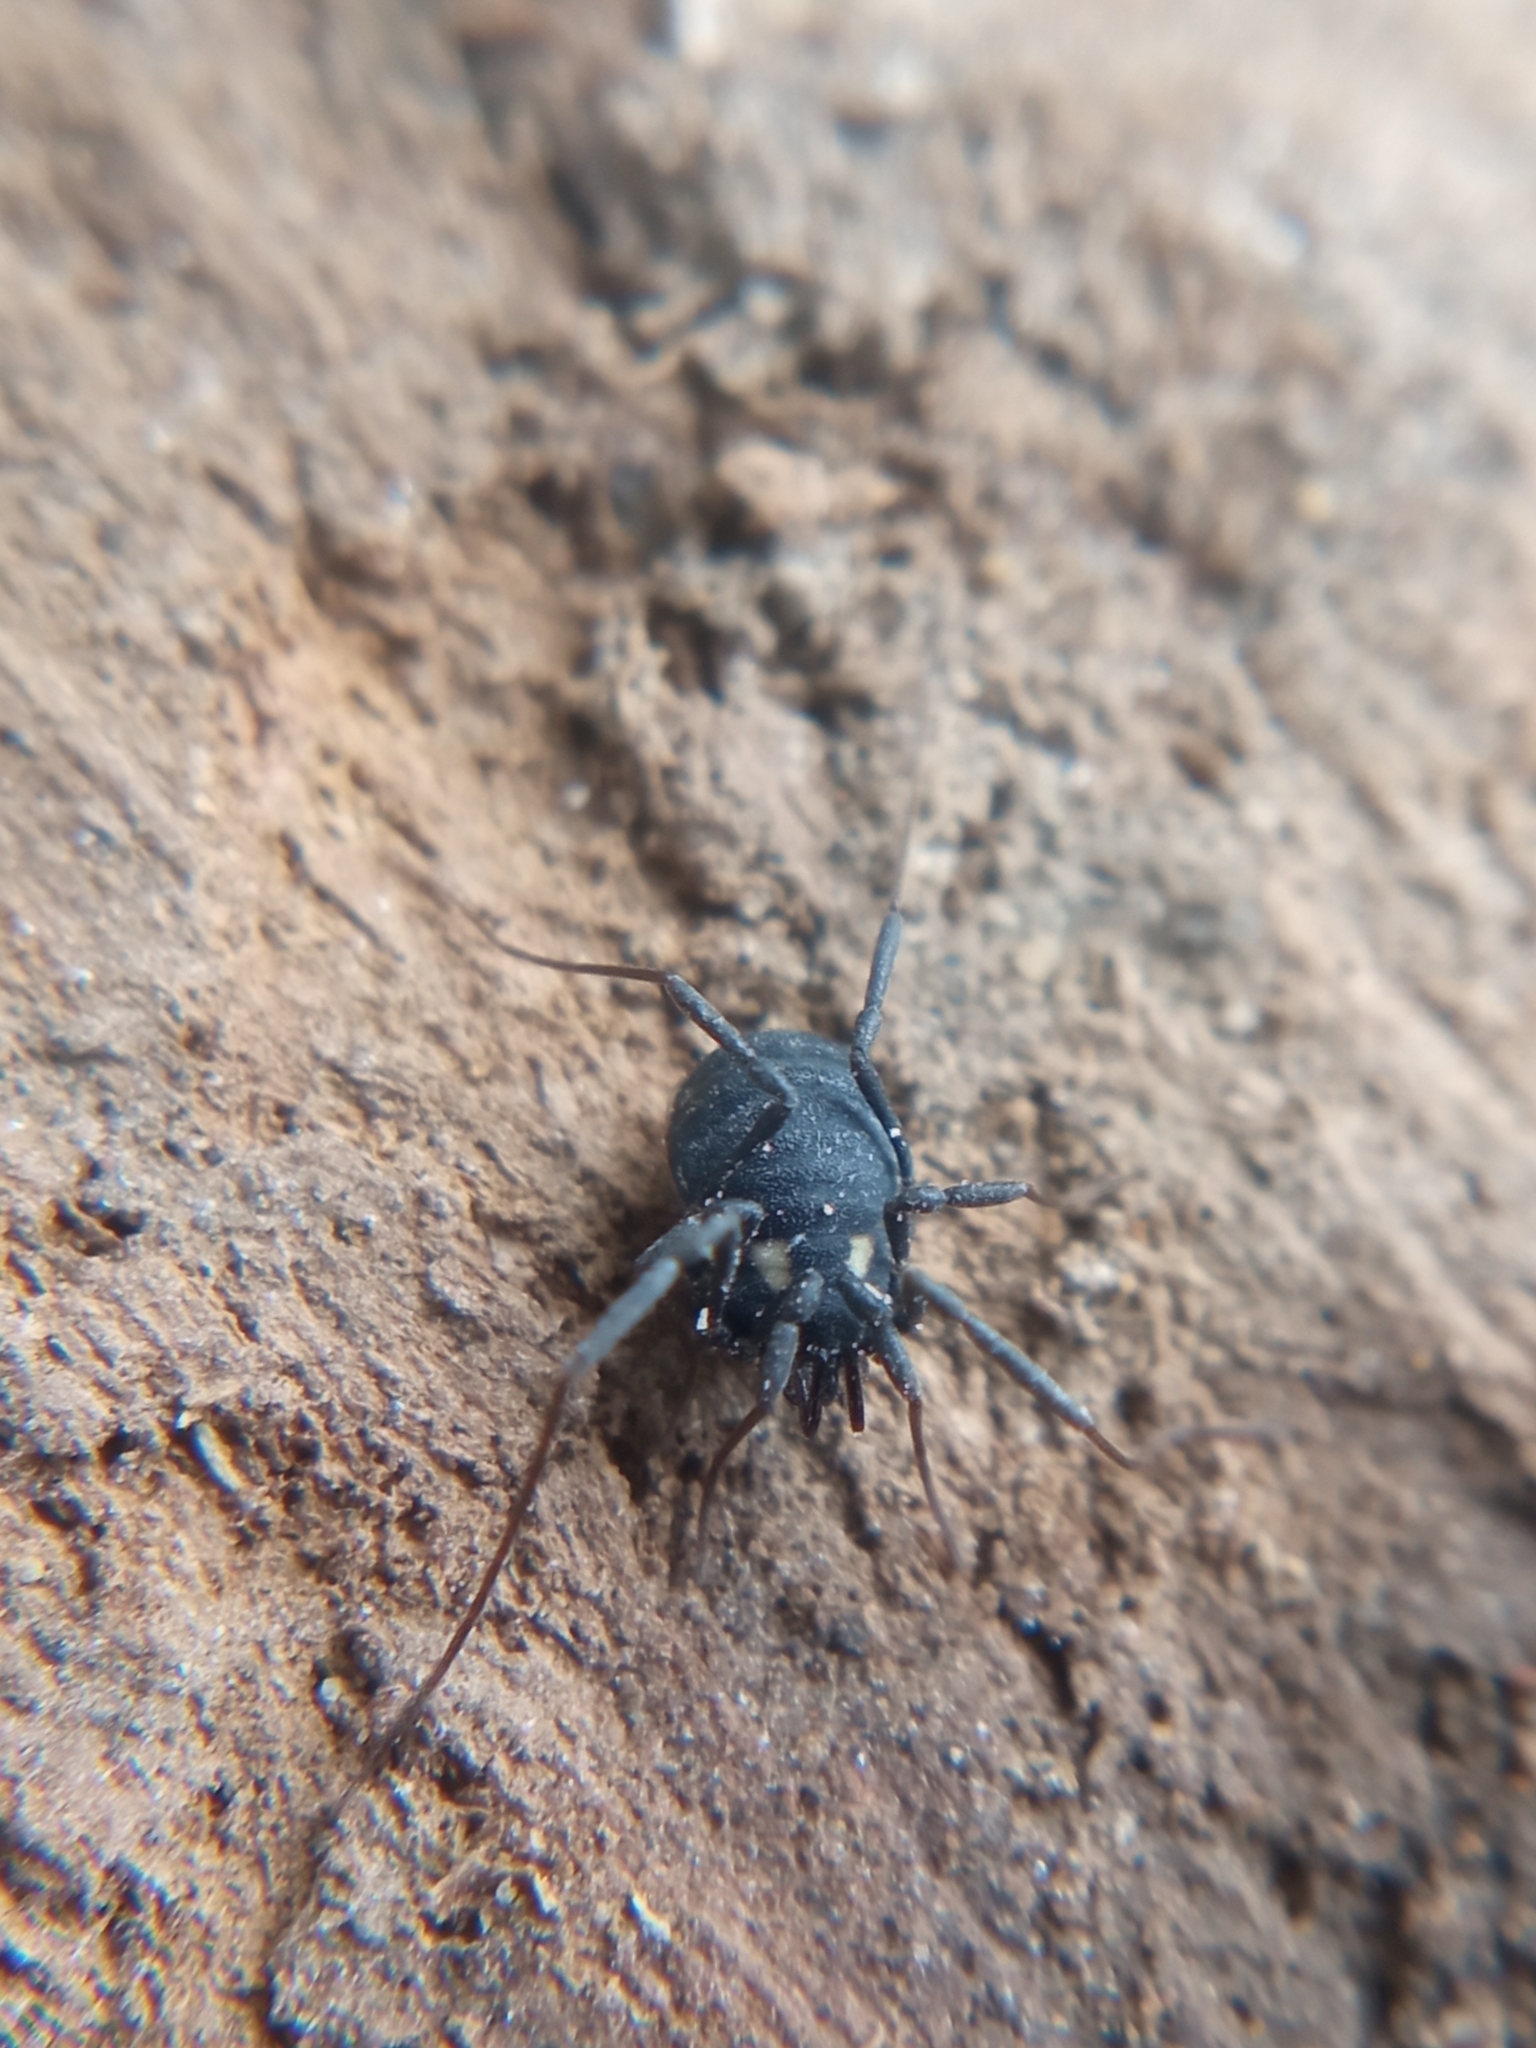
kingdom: Animalia
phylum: Arthropoda
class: Arachnida
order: Opiliones
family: Nemastomatidae
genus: Nemastoma
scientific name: Nemastoma lugubre
